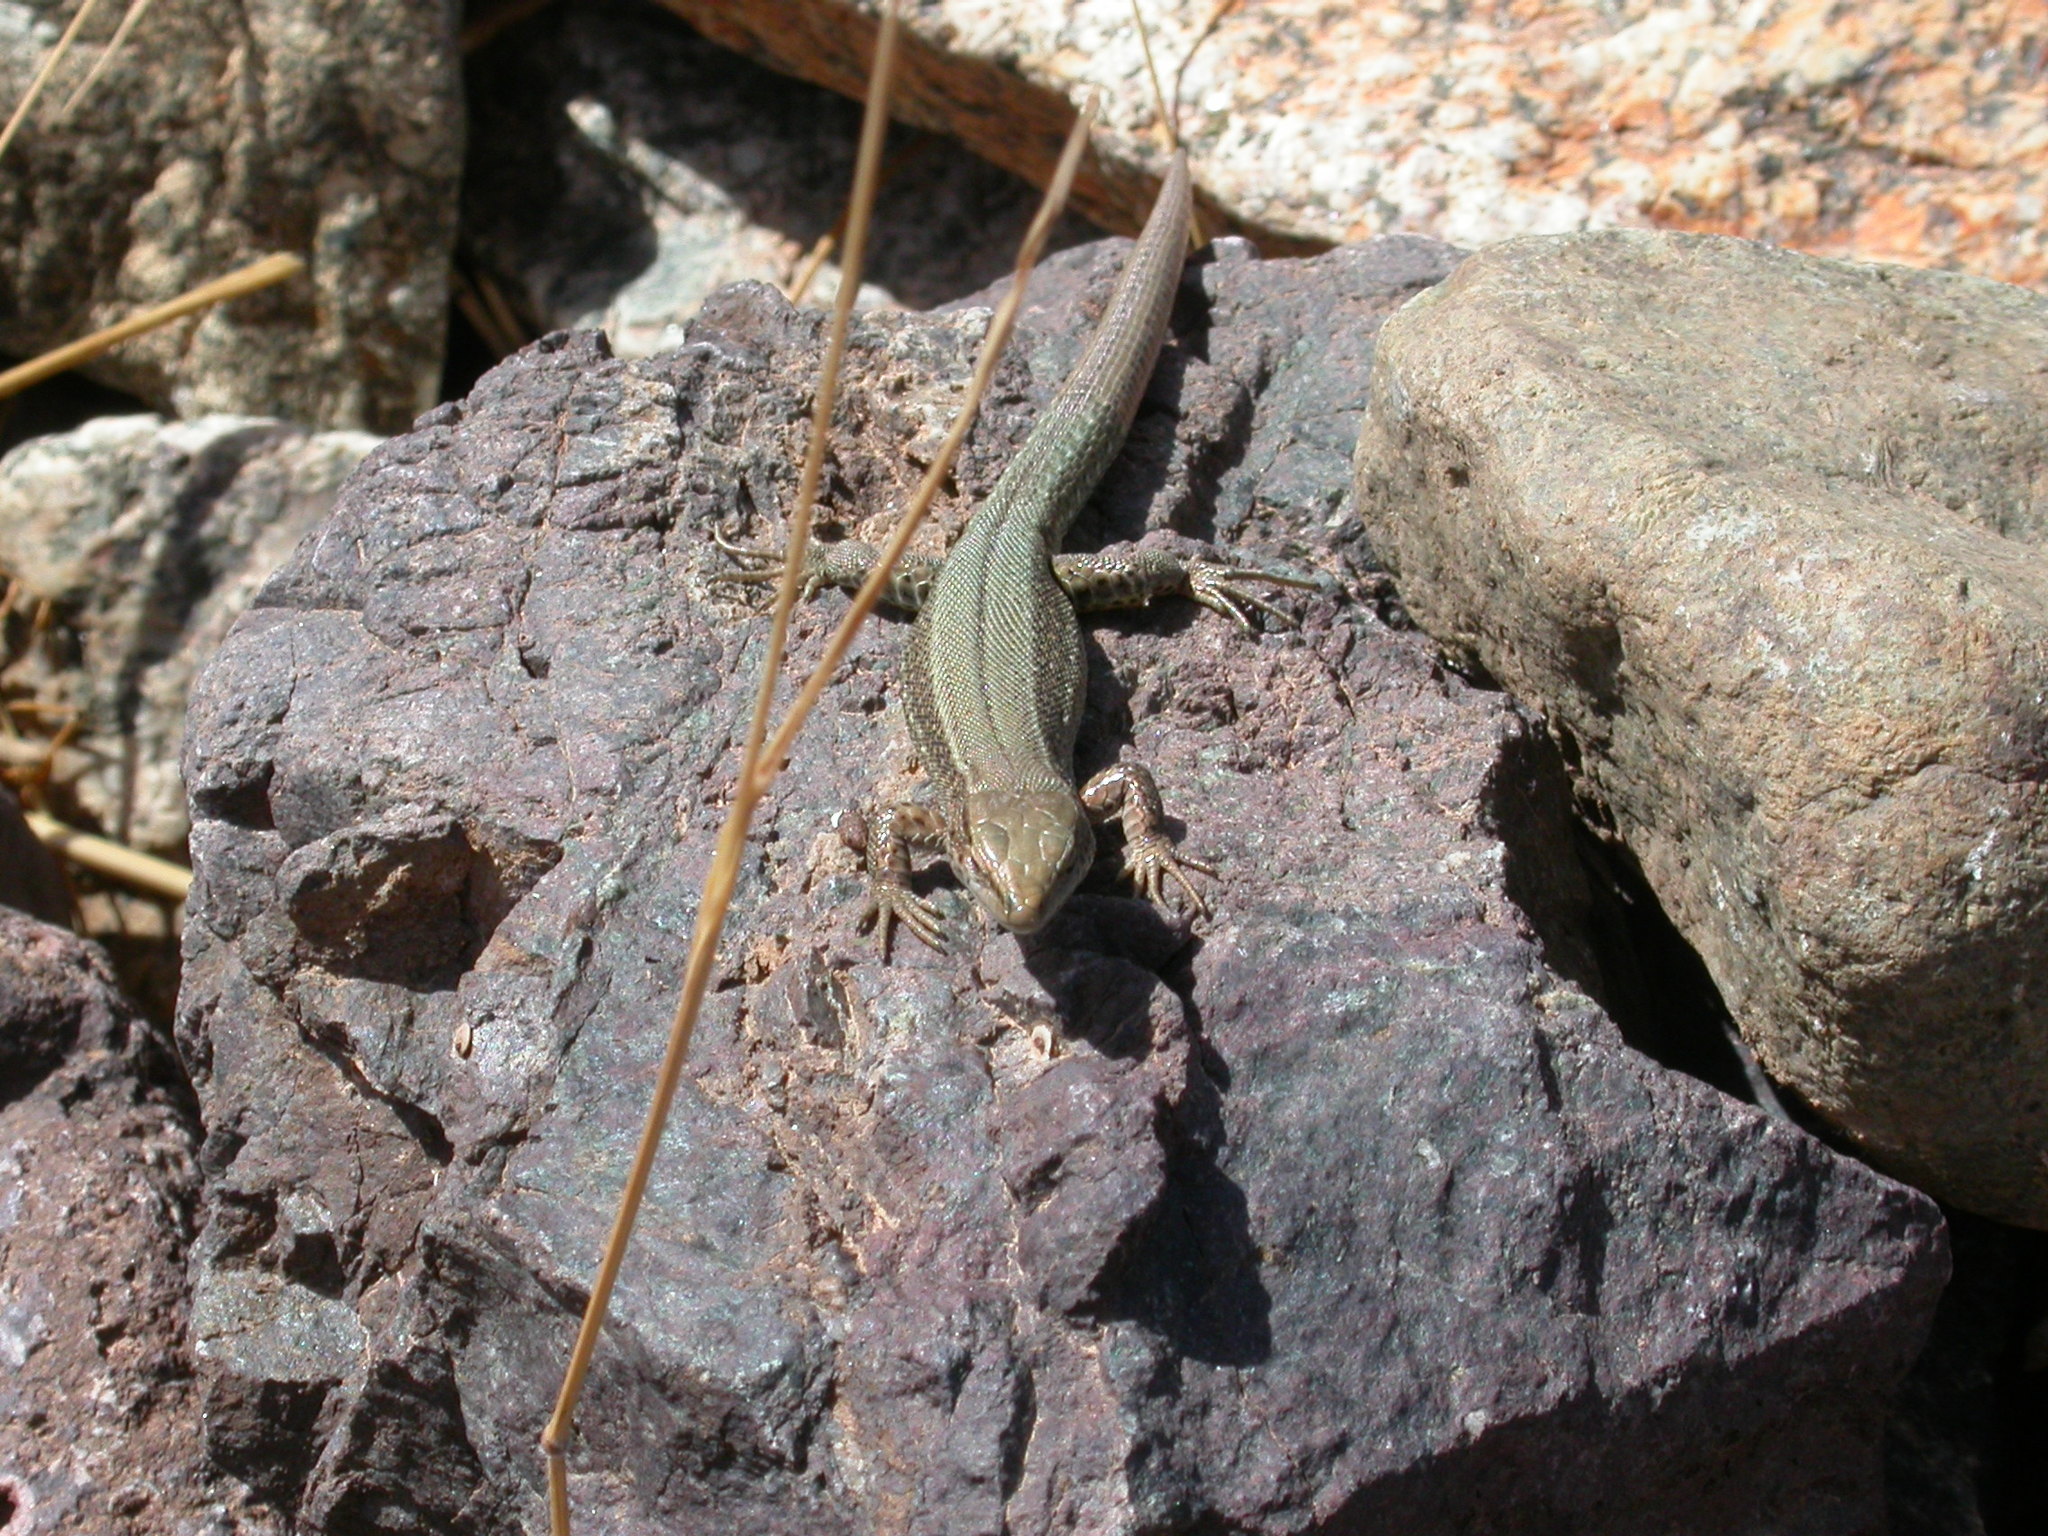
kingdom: Animalia
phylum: Chordata
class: Squamata
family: Lacertidae
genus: Atlantolacerta
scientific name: Atlantolacerta andreanskyi
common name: Atlas dwarf lizard
